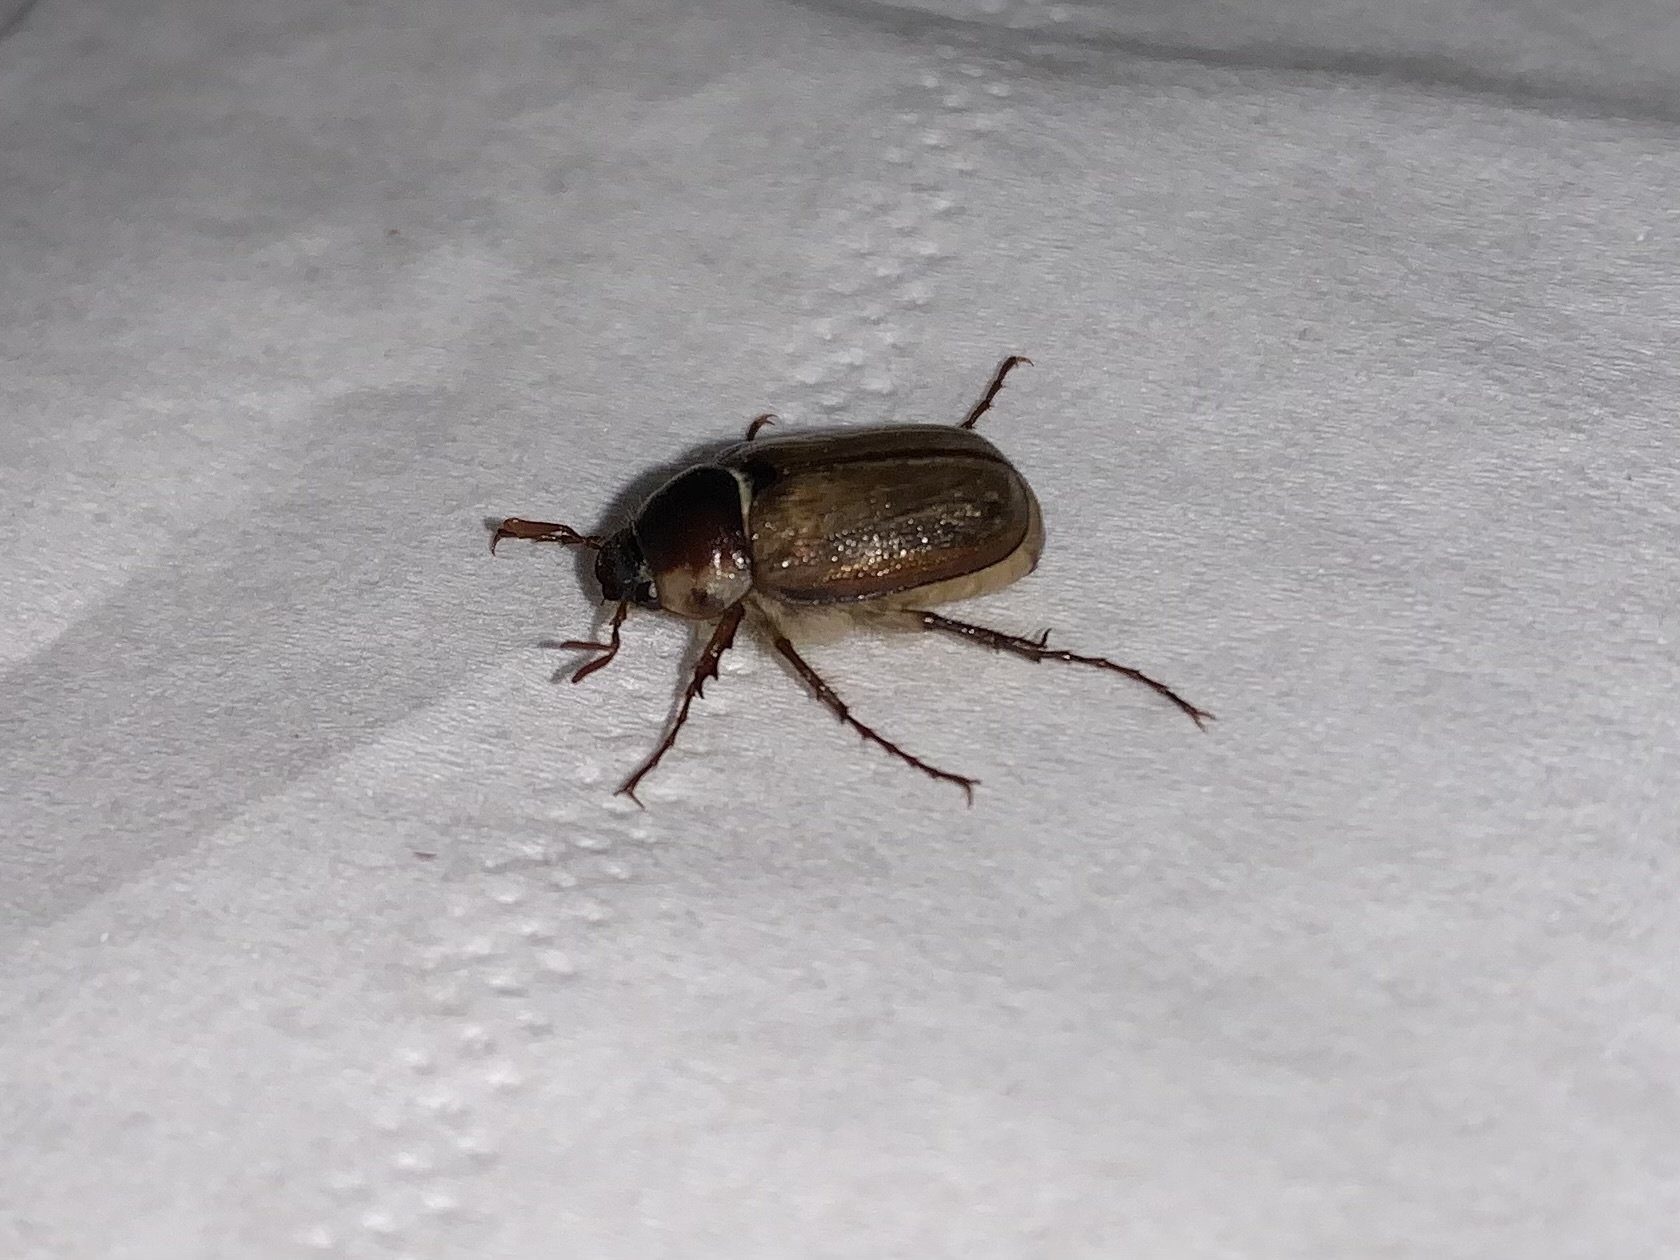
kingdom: Animalia
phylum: Arthropoda
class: Insecta
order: Coleoptera
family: Scarabaeidae
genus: Monotropus
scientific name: Monotropus fausti
